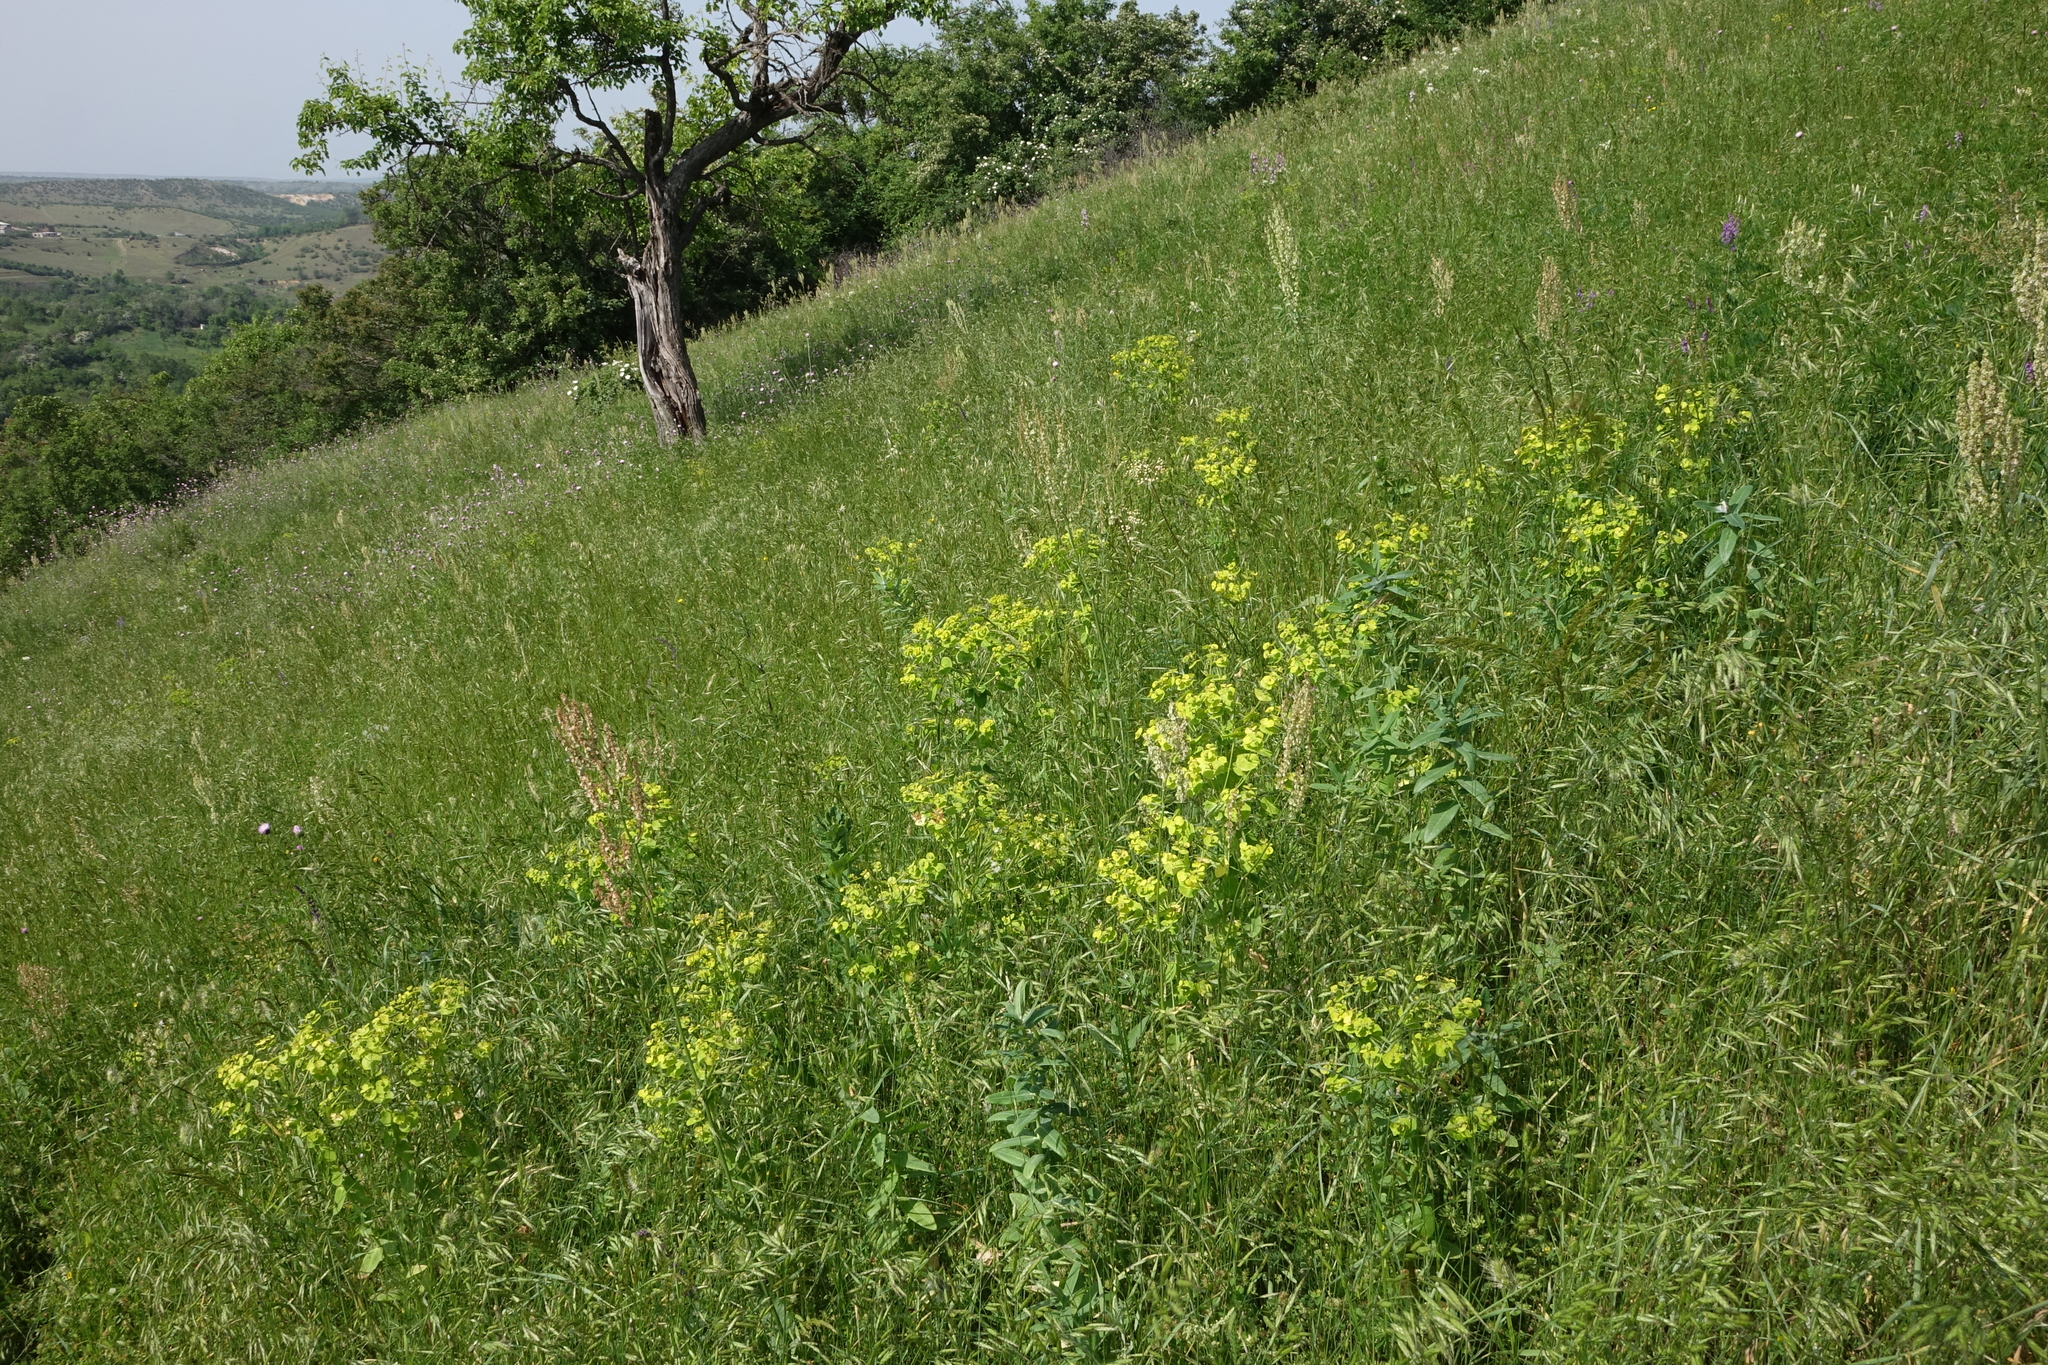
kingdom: Plantae
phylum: Tracheophyta
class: Magnoliopsida
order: Malpighiales
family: Euphorbiaceae
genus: Euphorbia
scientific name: Euphorbia iberica
